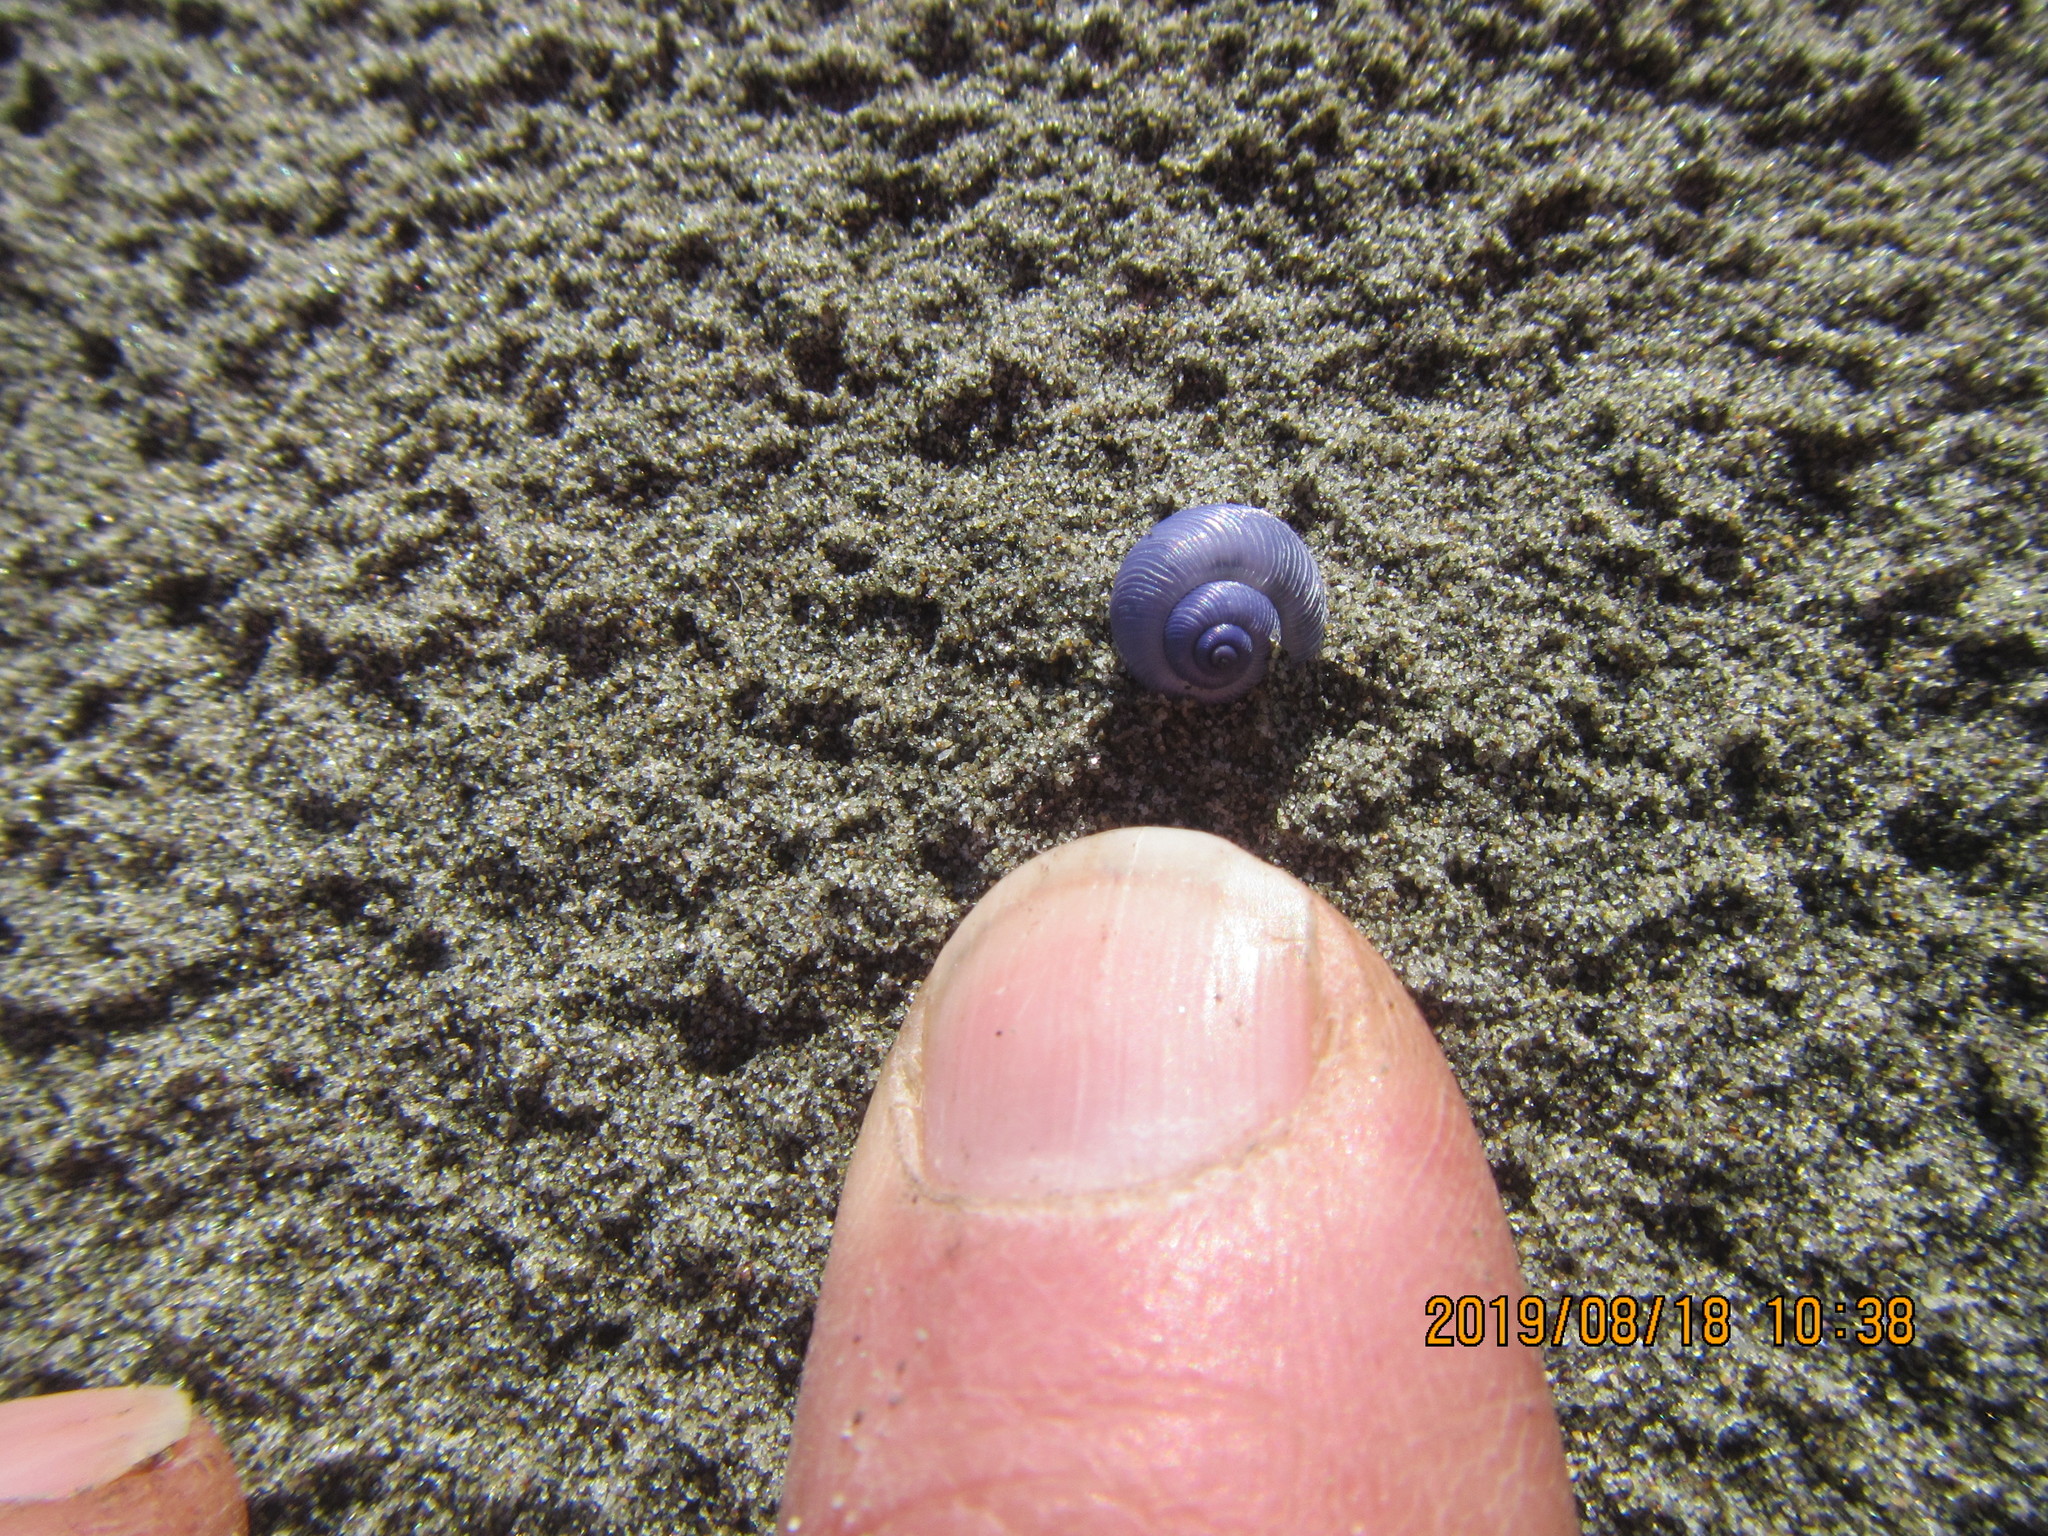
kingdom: Animalia
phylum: Mollusca
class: Gastropoda
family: Epitoniidae
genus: Janthina
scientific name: Janthina exigua
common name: Dwarf janthina
